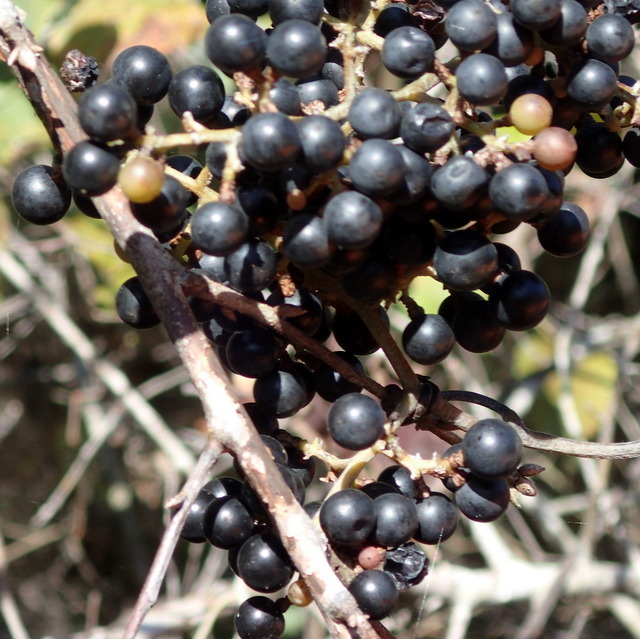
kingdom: Plantae
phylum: Tracheophyta
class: Magnoliopsida
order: Vitales
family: Vitaceae
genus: Vitis
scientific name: Vitis rotundifolia
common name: Muscadine grape
